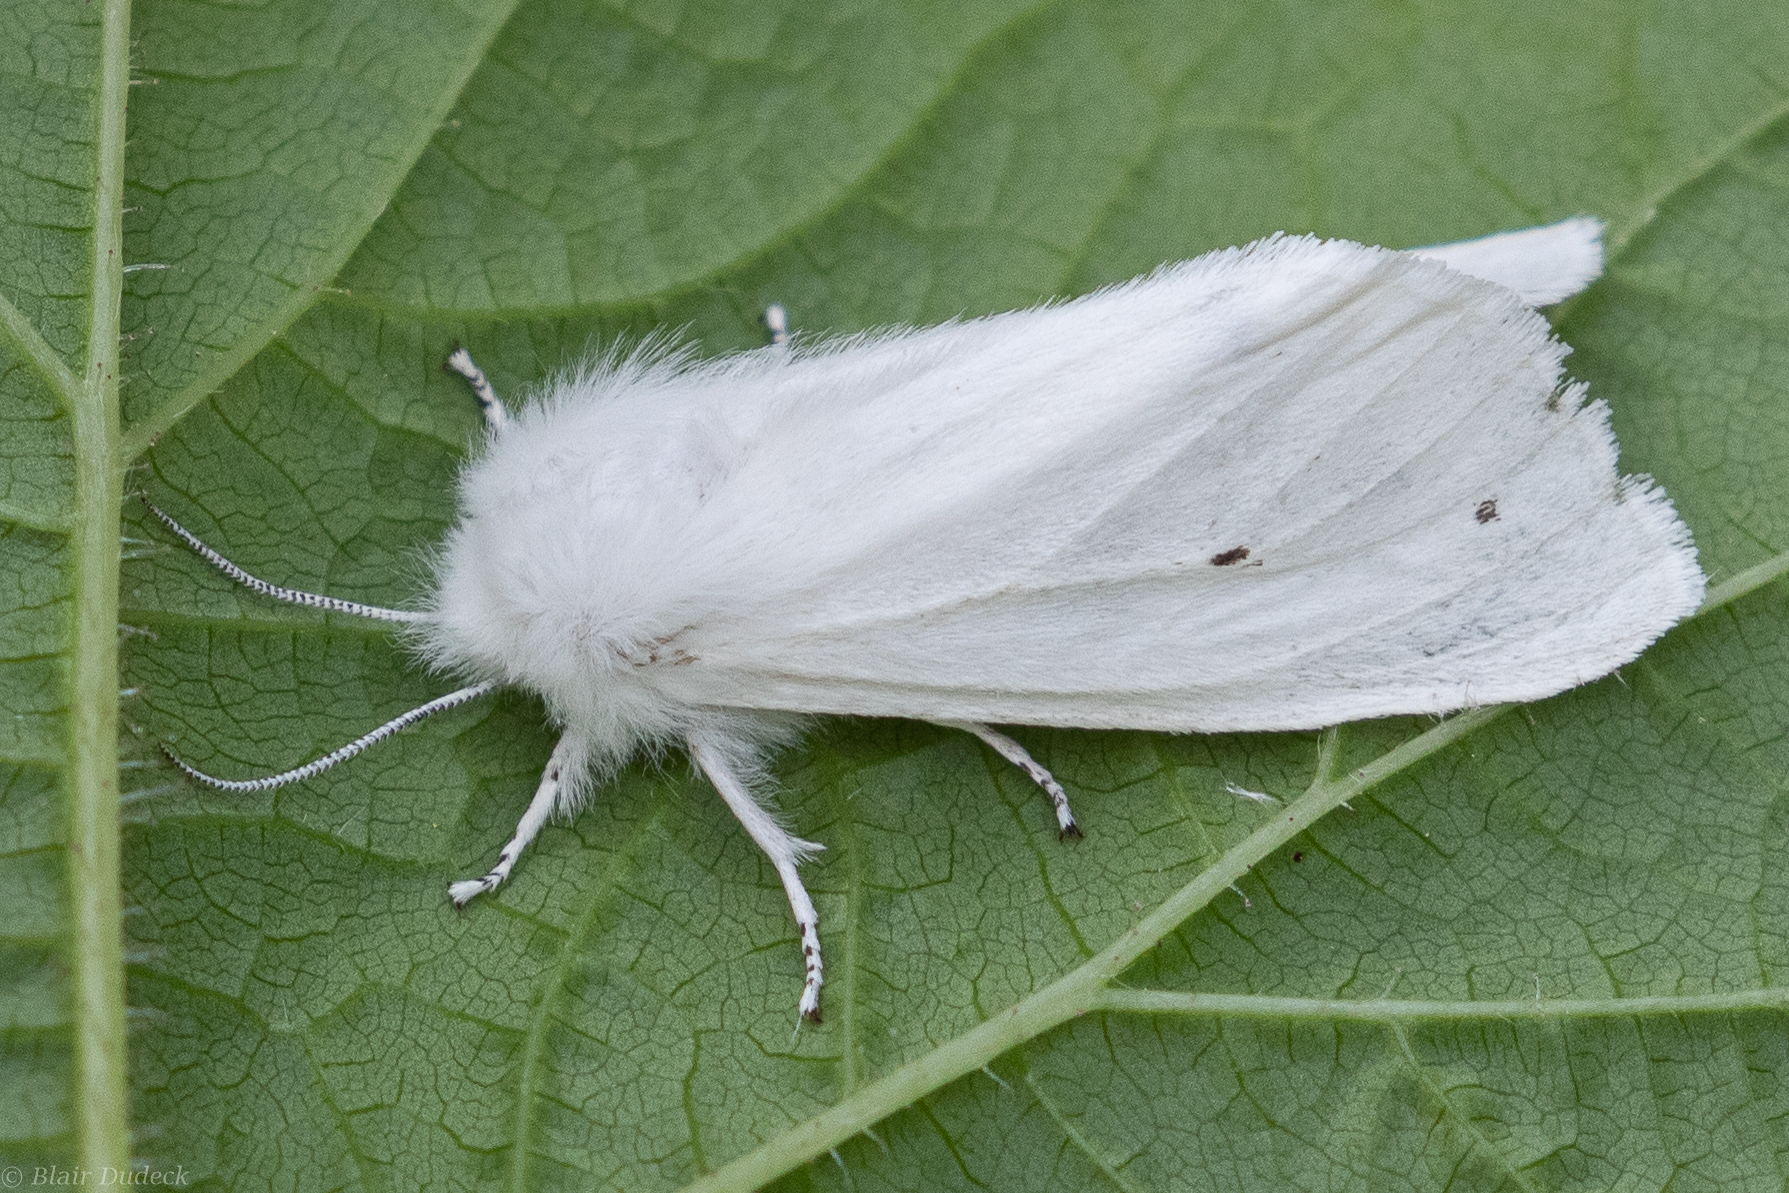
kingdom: Animalia
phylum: Arthropoda
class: Insecta
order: Lepidoptera
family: Erebidae
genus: Spilosoma
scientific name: Spilosoma virginica
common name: Virginia tiger moth
